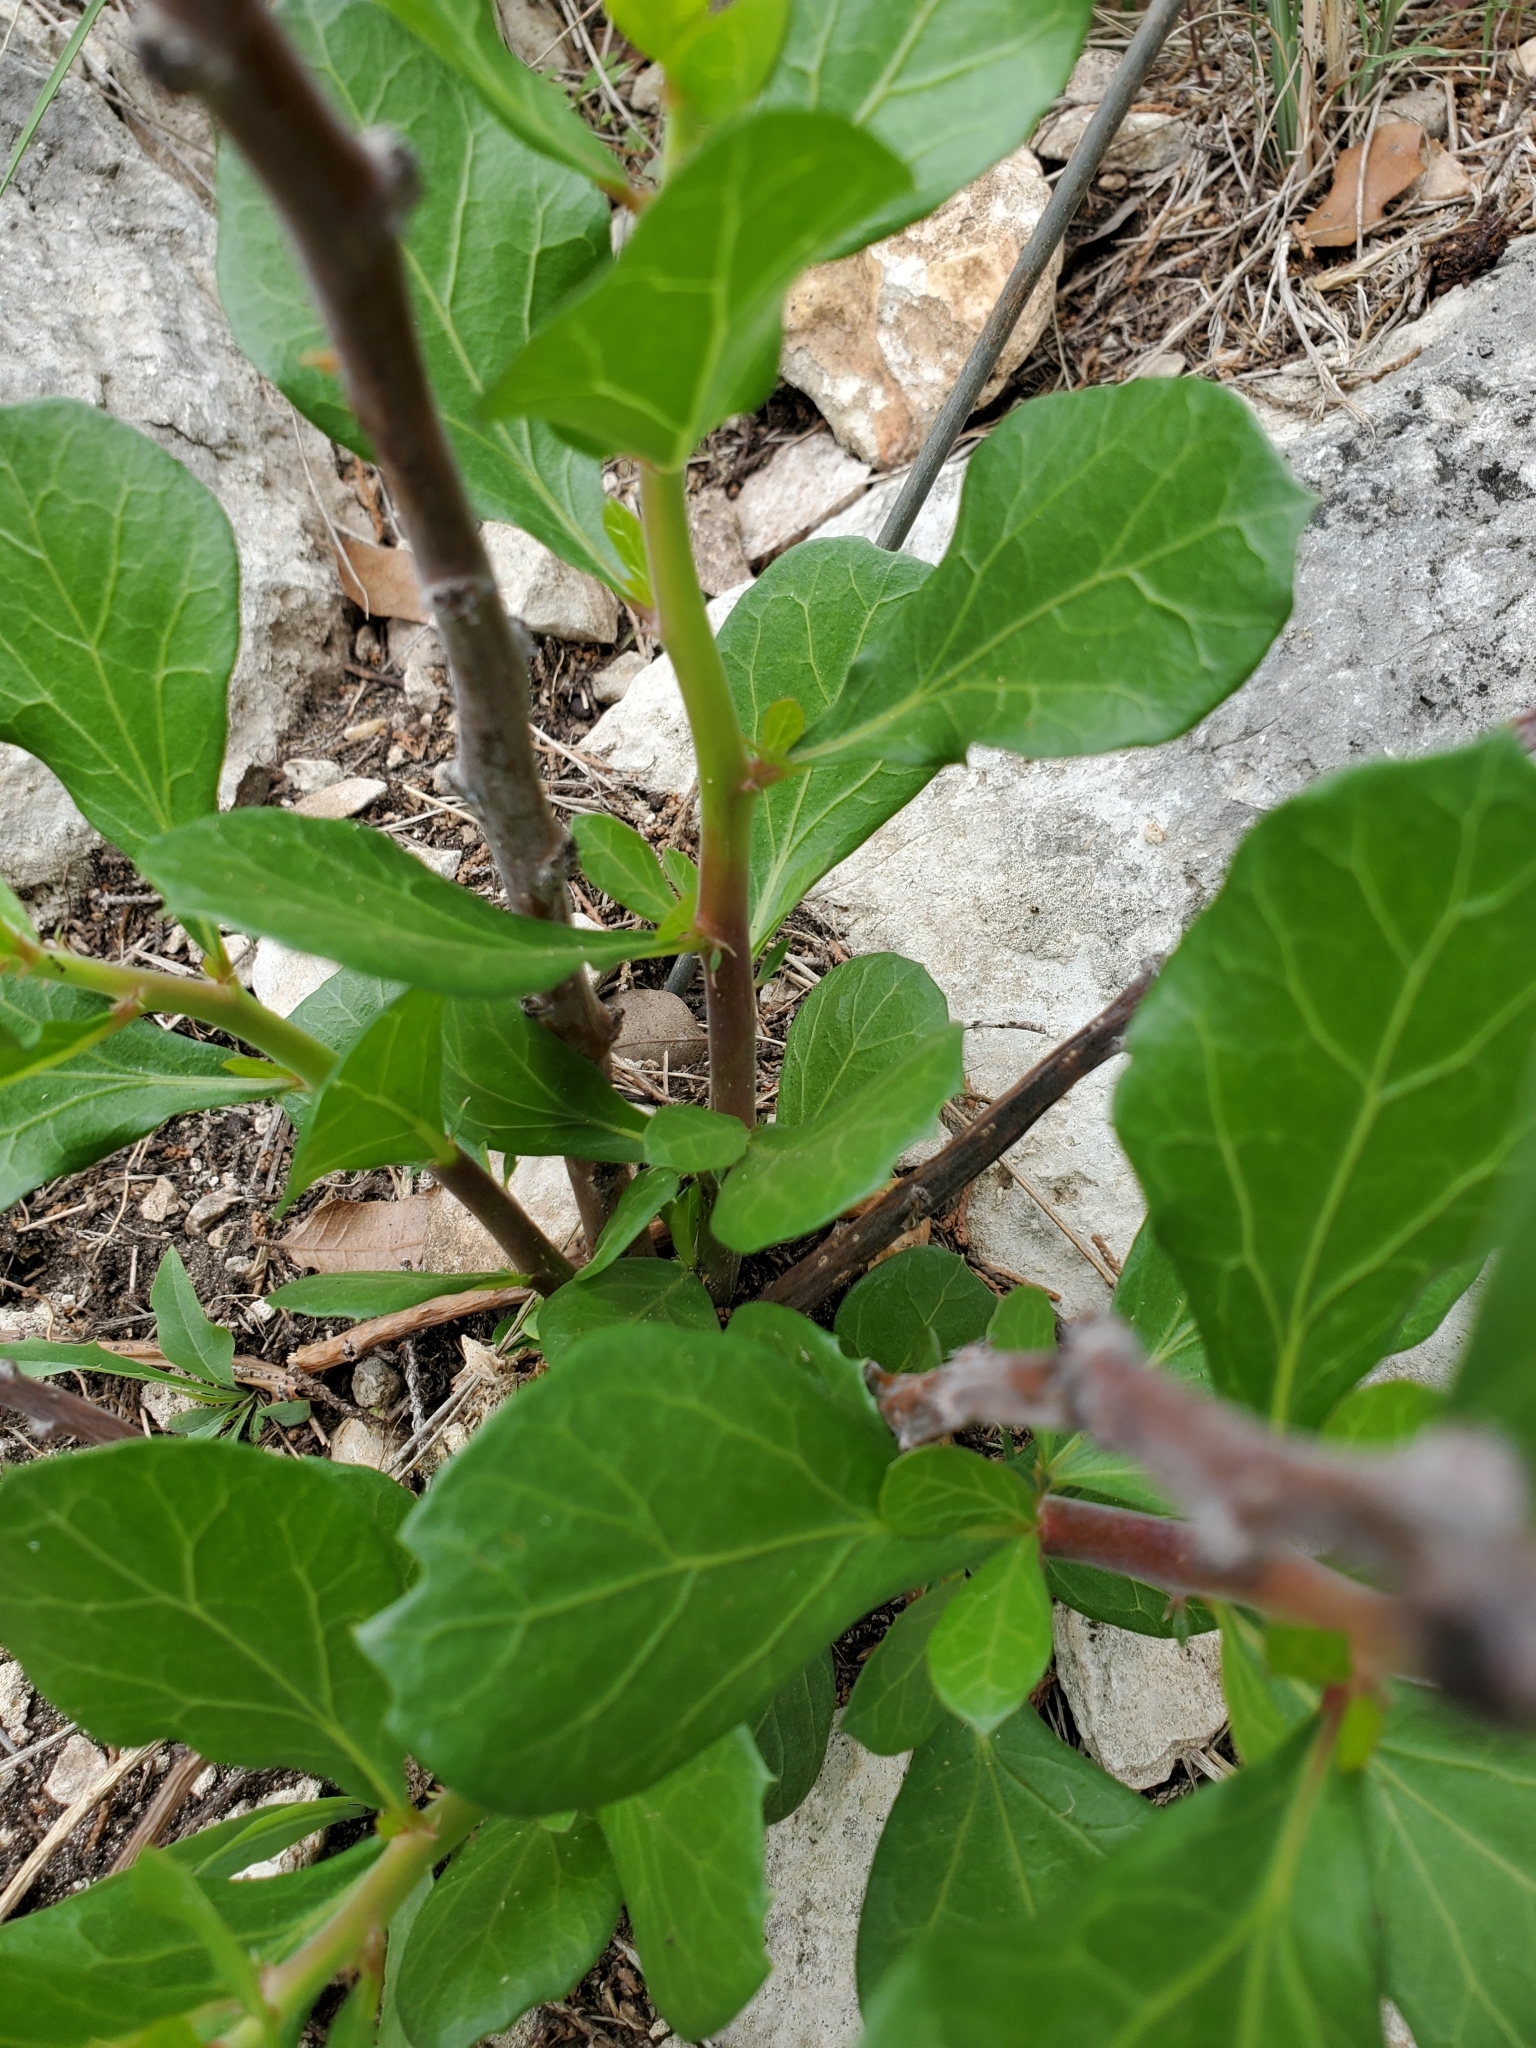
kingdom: Plantae
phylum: Tracheophyta
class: Magnoliopsida
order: Malpighiales
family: Euphorbiaceae
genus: Jatropha
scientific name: Jatropha dioica
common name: Leatherstem
